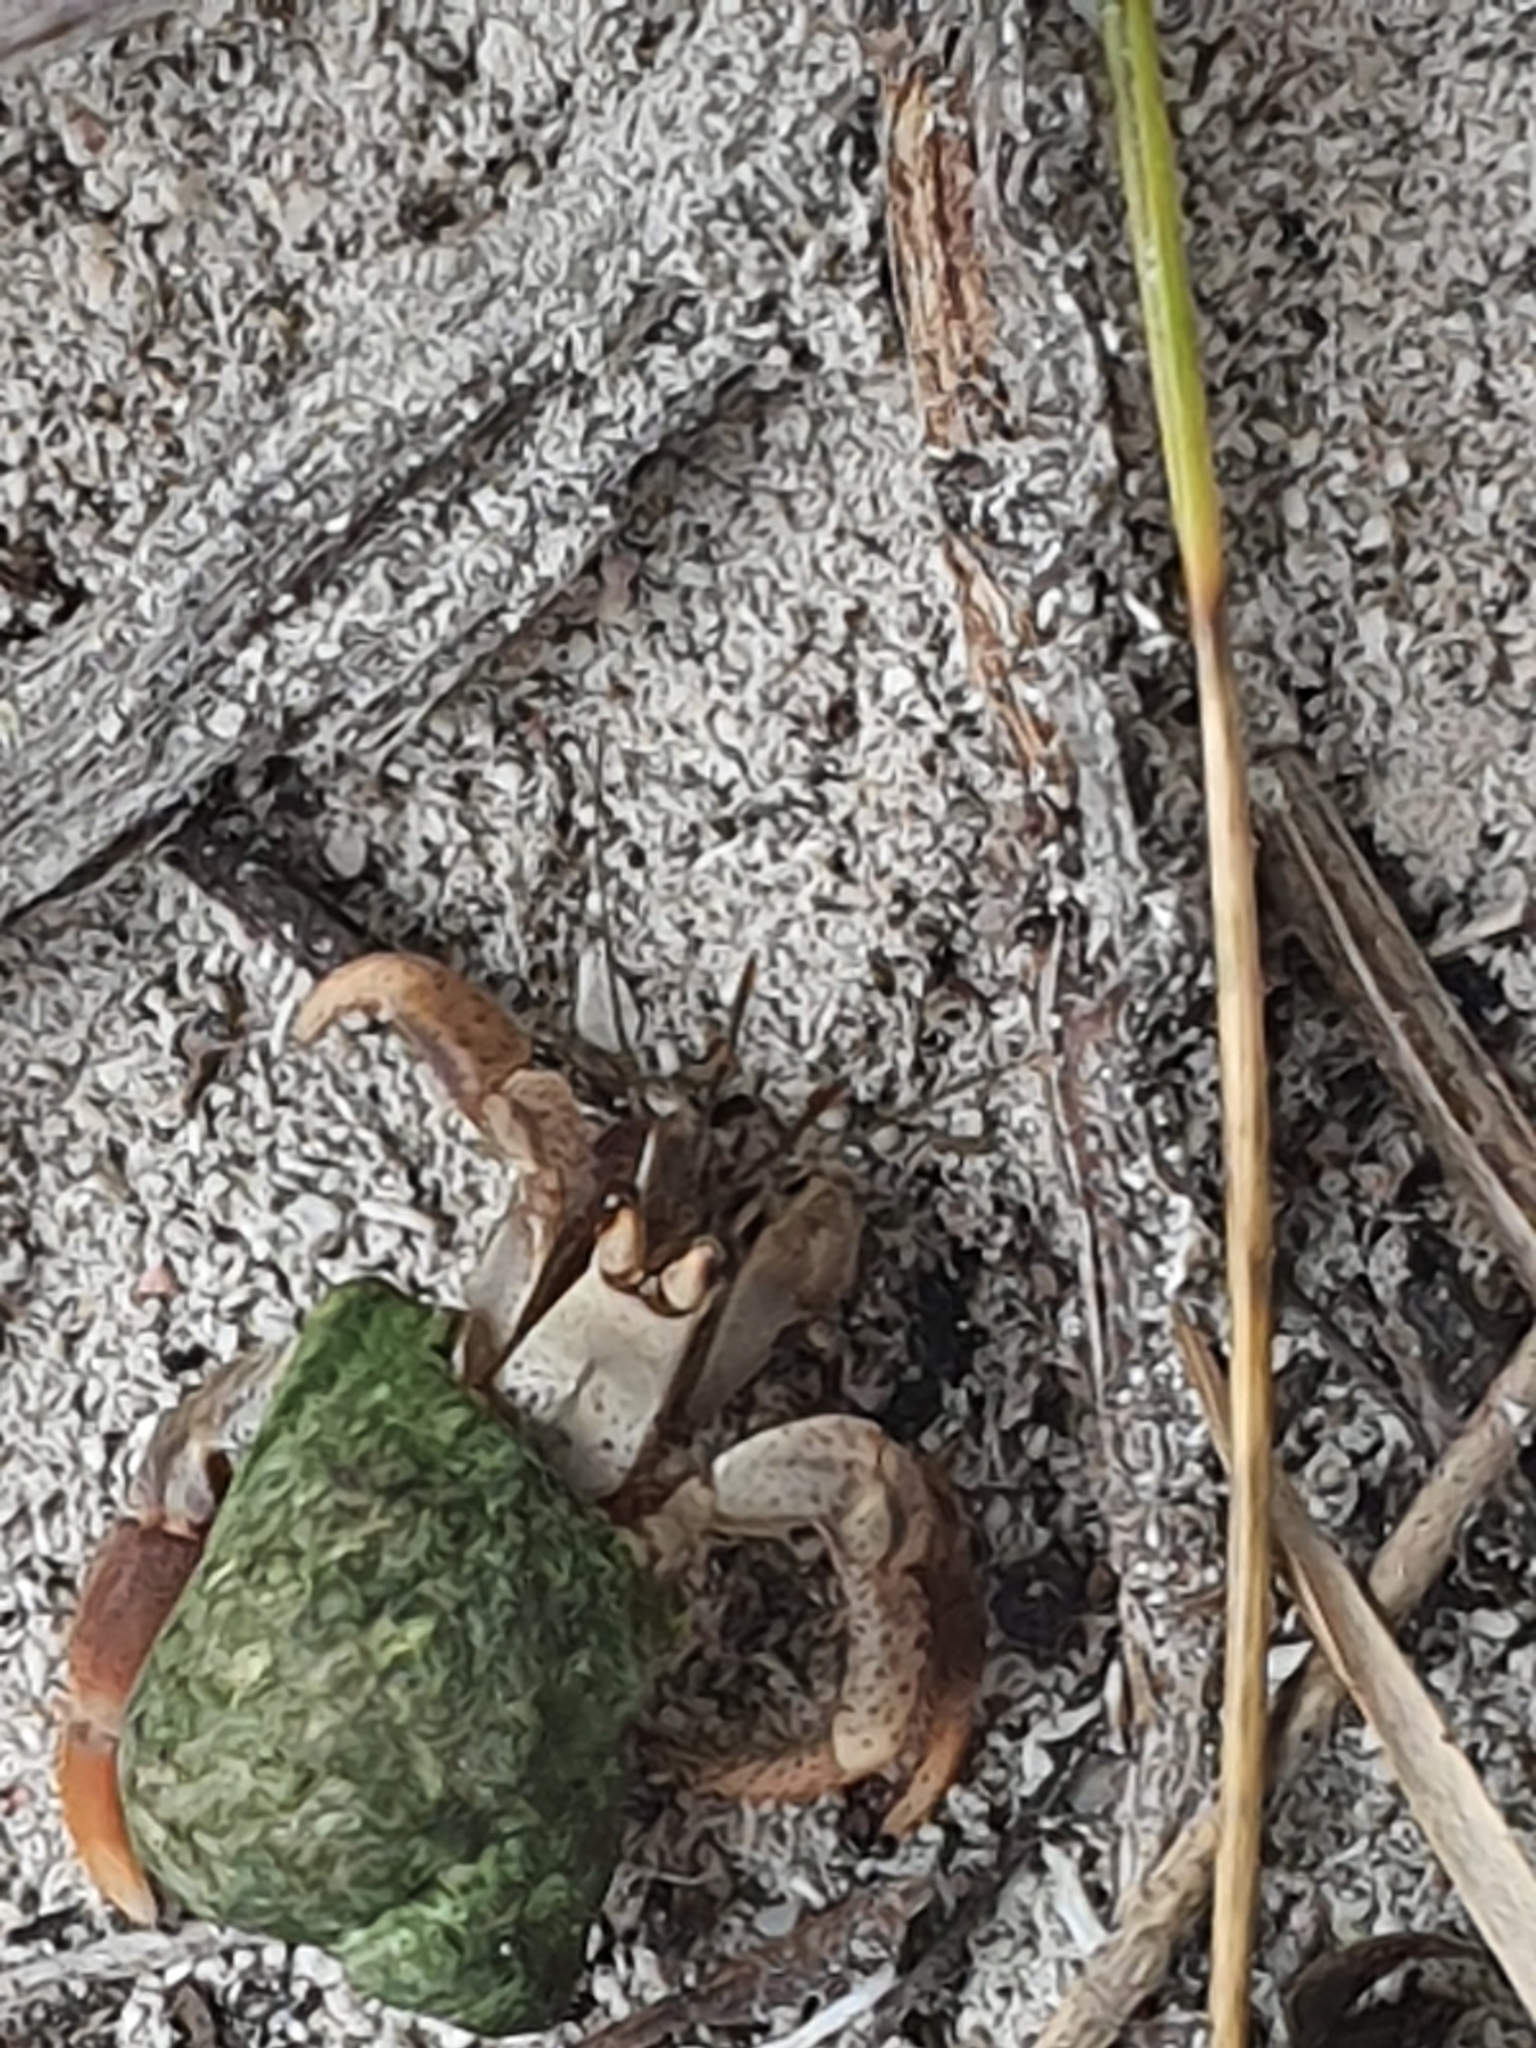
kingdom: Animalia
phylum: Arthropoda
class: Malacostraca
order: Decapoda
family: Coenobitidae
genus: Coenobita
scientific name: Coenobita clypeatus
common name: Caribbean hermit crab
